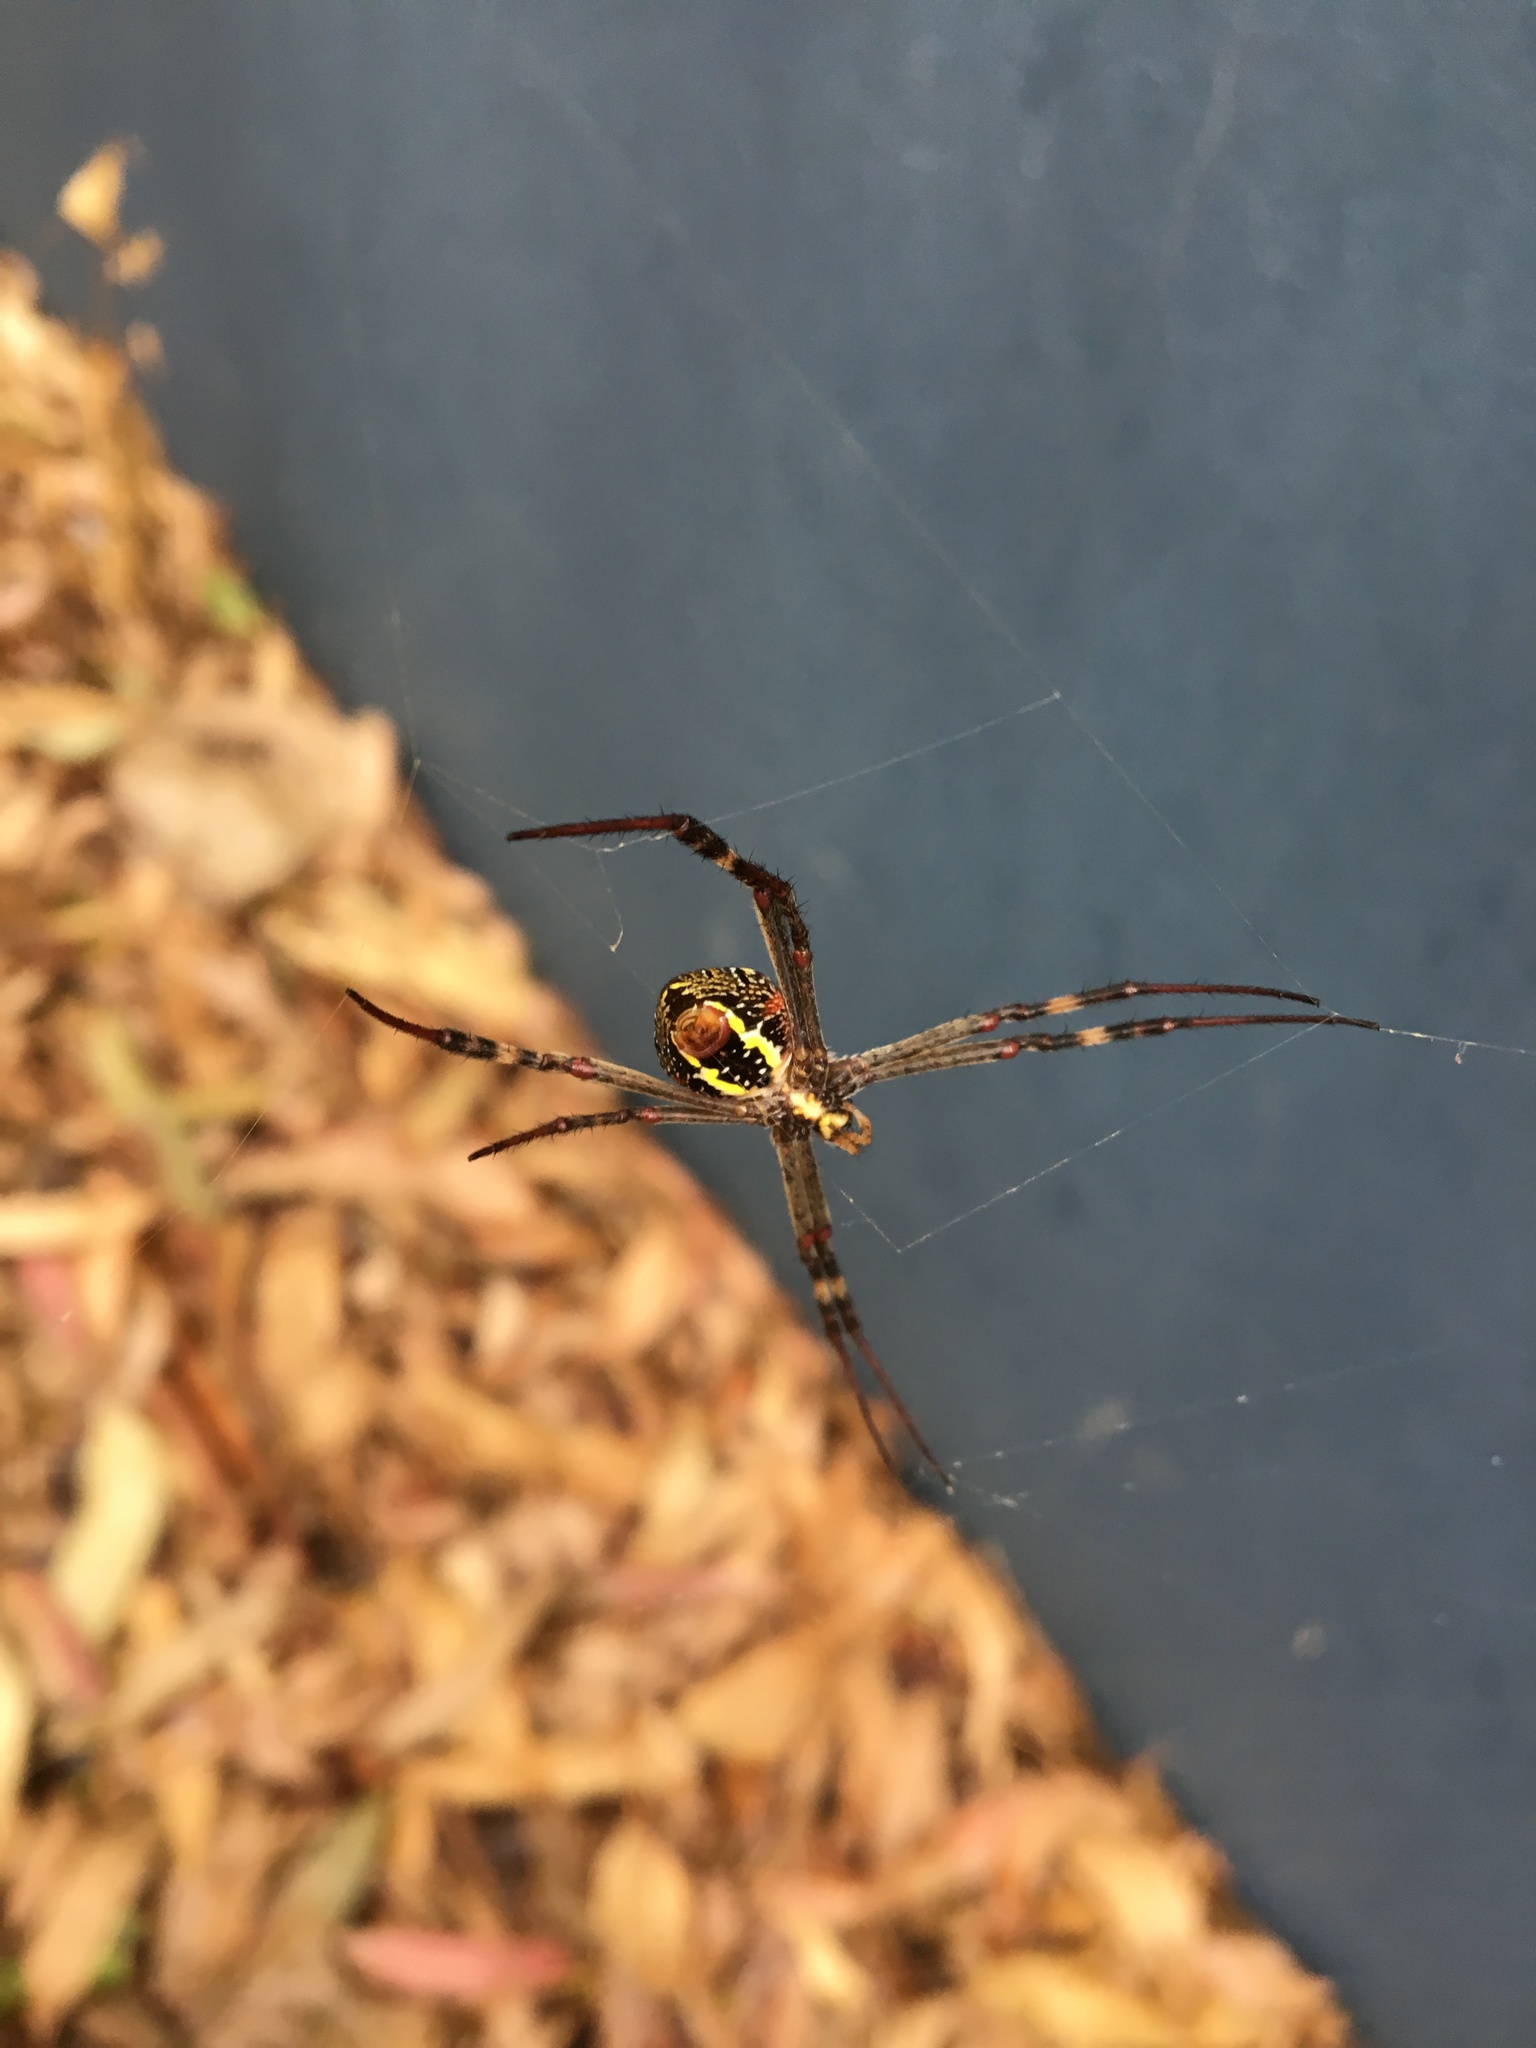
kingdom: Animalia
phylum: Arthropoda
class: Arachnida
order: Araneae
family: Araneidae
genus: Argiope
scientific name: Argiope keyserlingi
